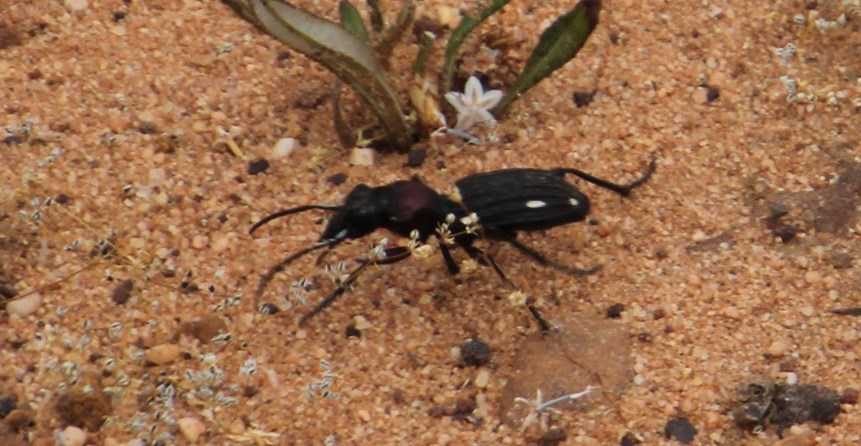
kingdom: Animalia
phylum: Arthropoda
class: Insecta
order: Coleoptera
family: Carabidae
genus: Anthia
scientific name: Anthia decemguttata
